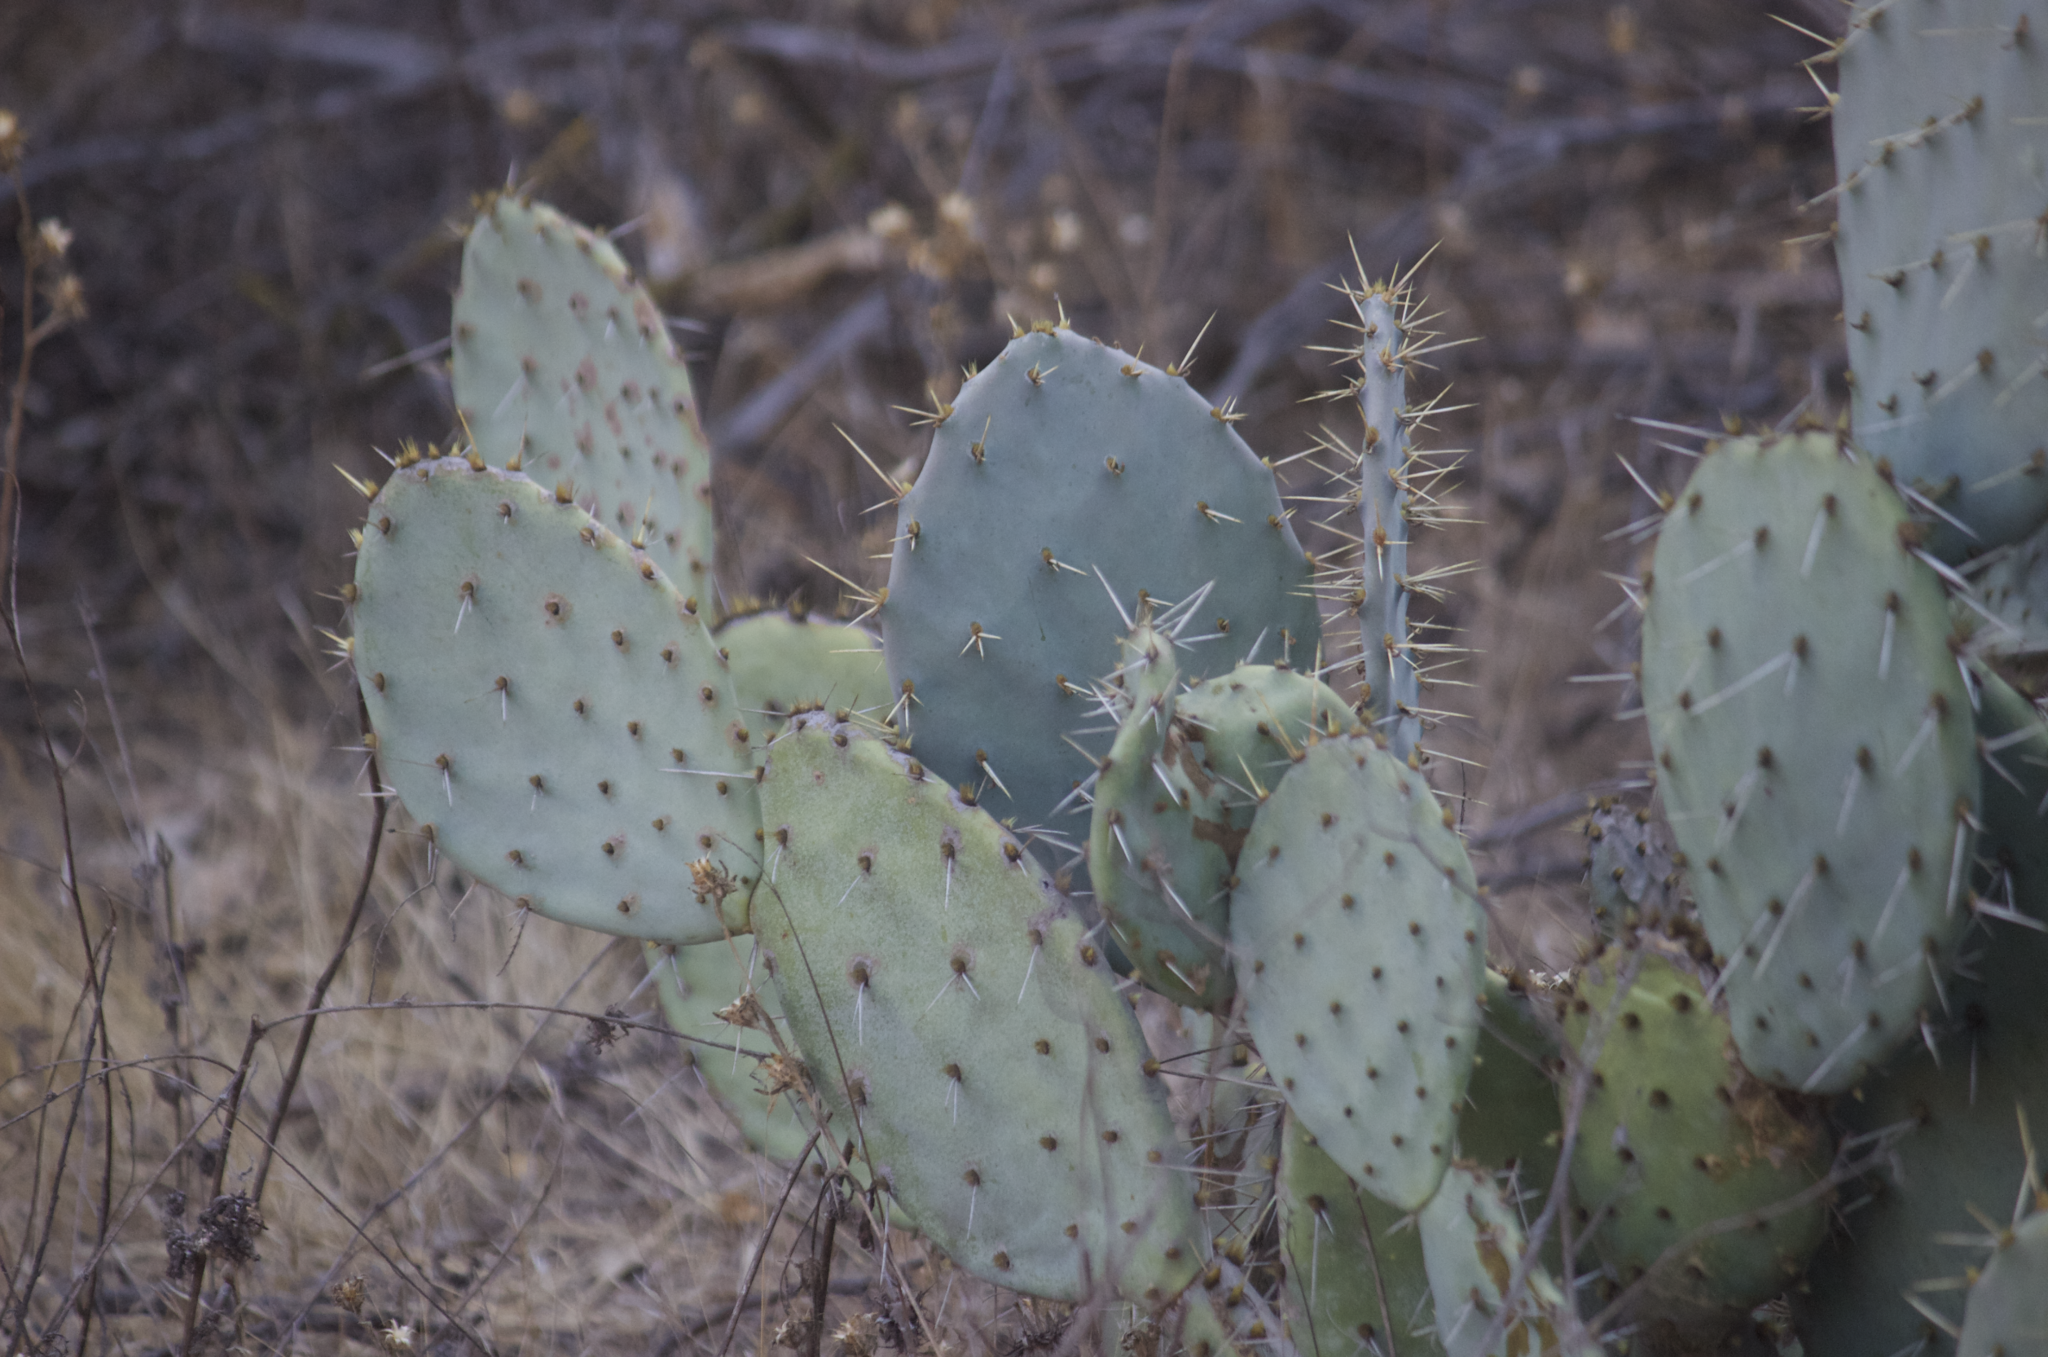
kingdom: Plantae
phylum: Tracheophyta
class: Magnoliopsida
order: Caryophyllales
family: Cactaceae
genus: Opuntia
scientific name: Opuntia littoralis
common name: Coastal prickly-pear
